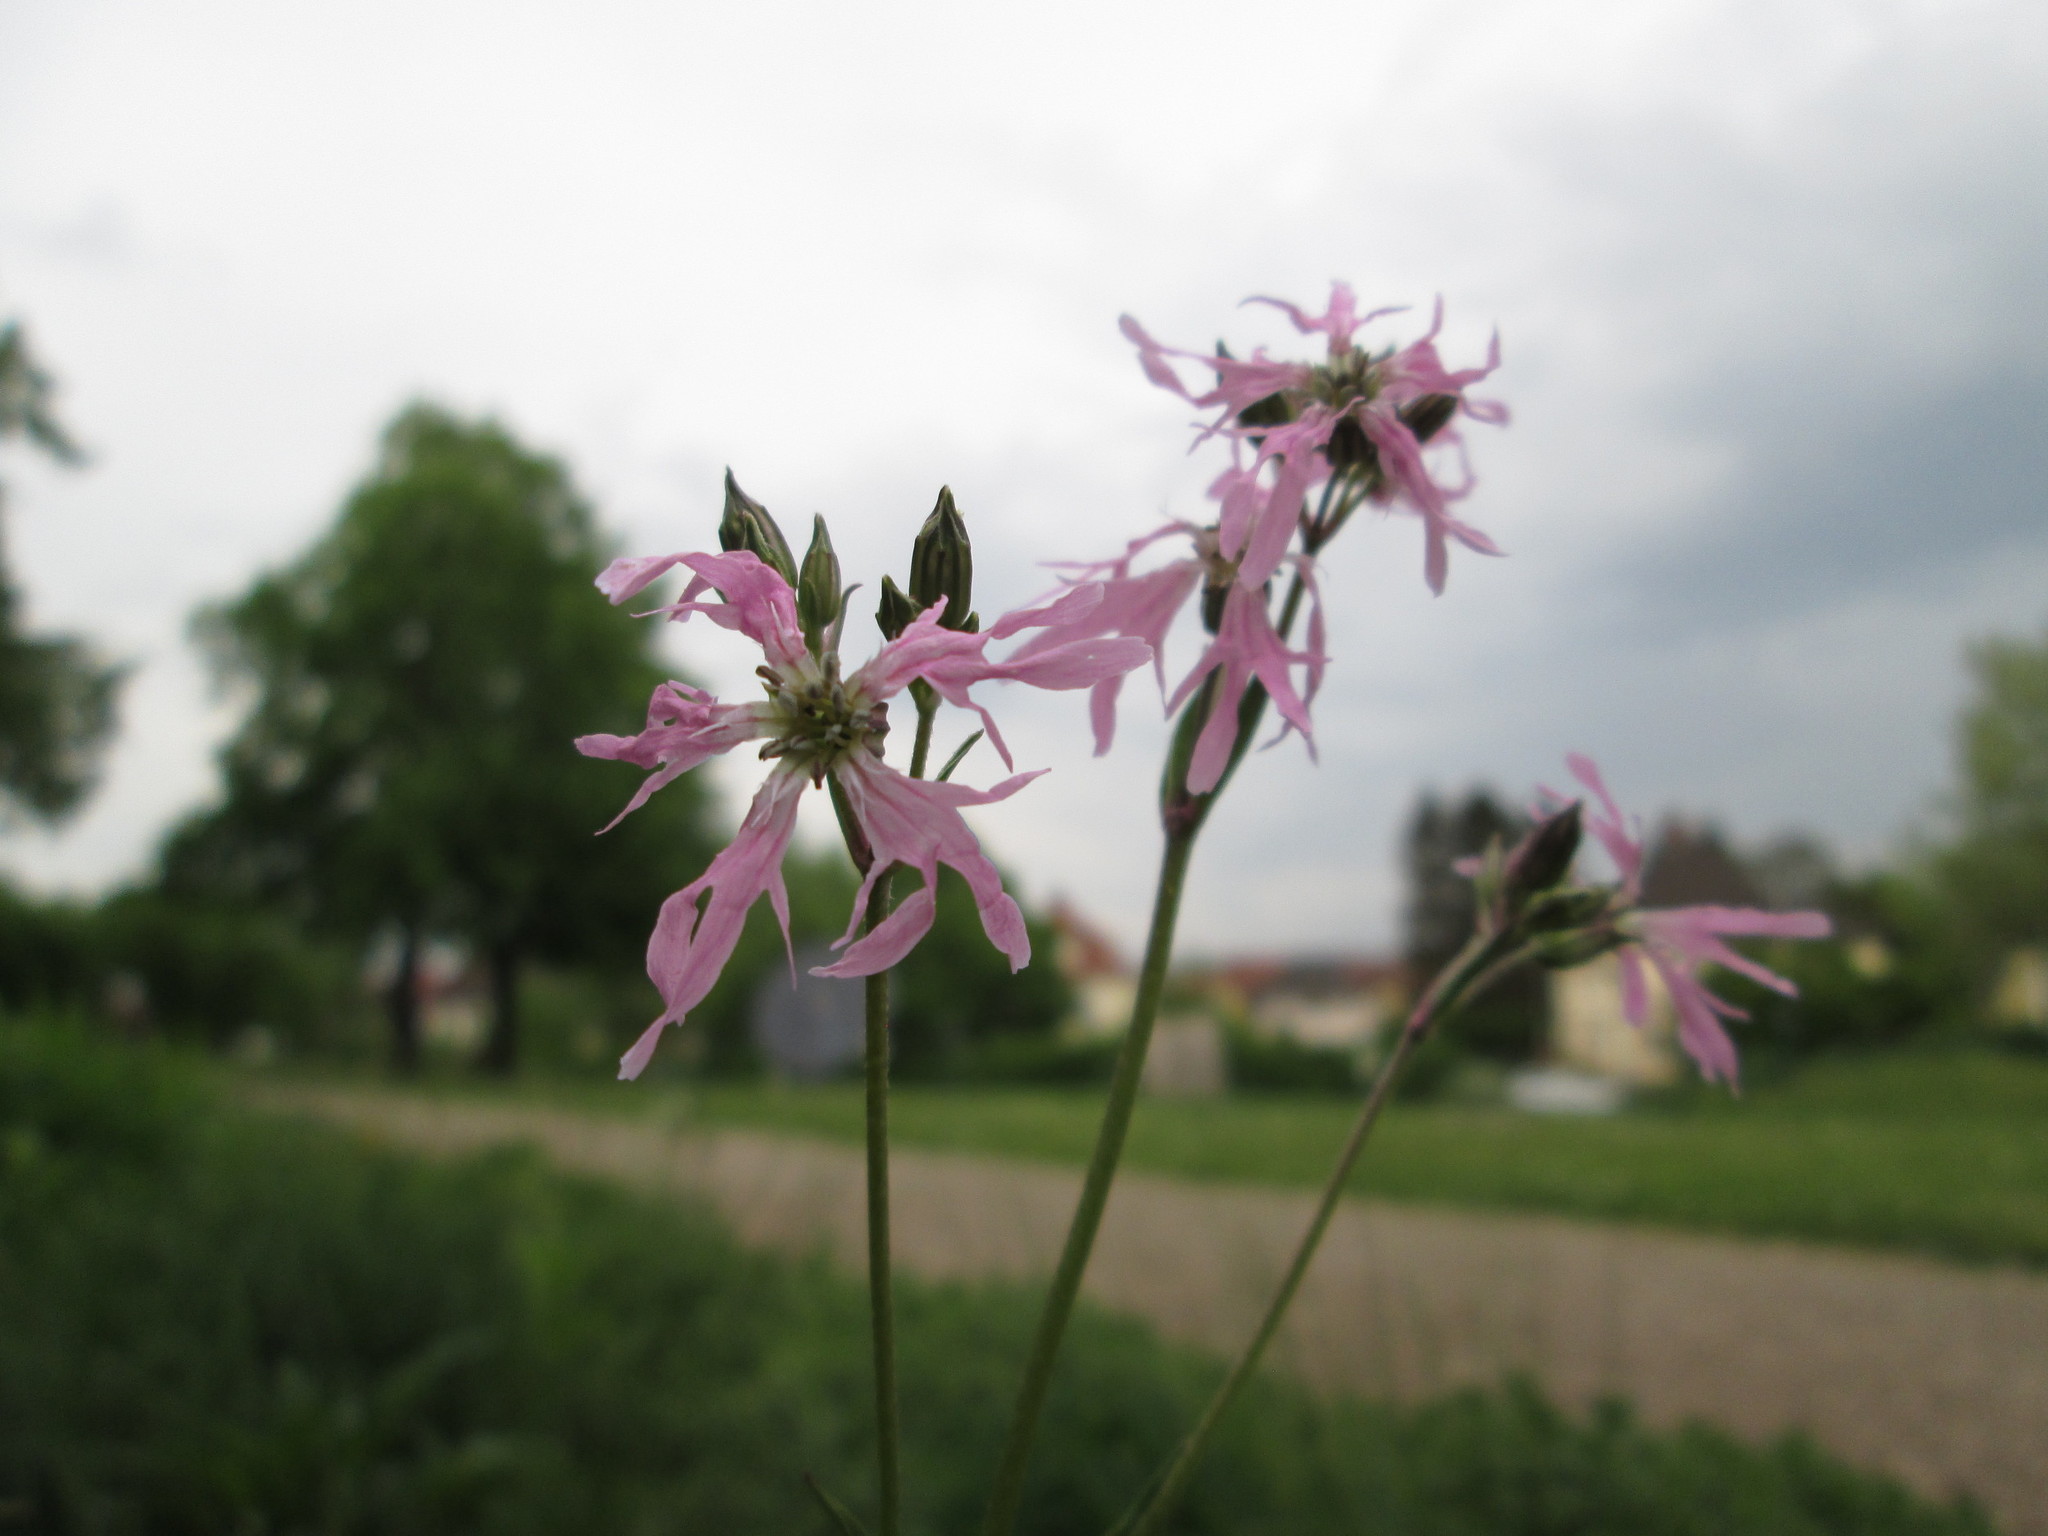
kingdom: Plantae
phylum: Tracheophyta
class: Magnoliopsida
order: Caryophyllales
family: Caryophyllaceae
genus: Silene
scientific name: Silene flos-cuculi
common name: Ragged-robin
